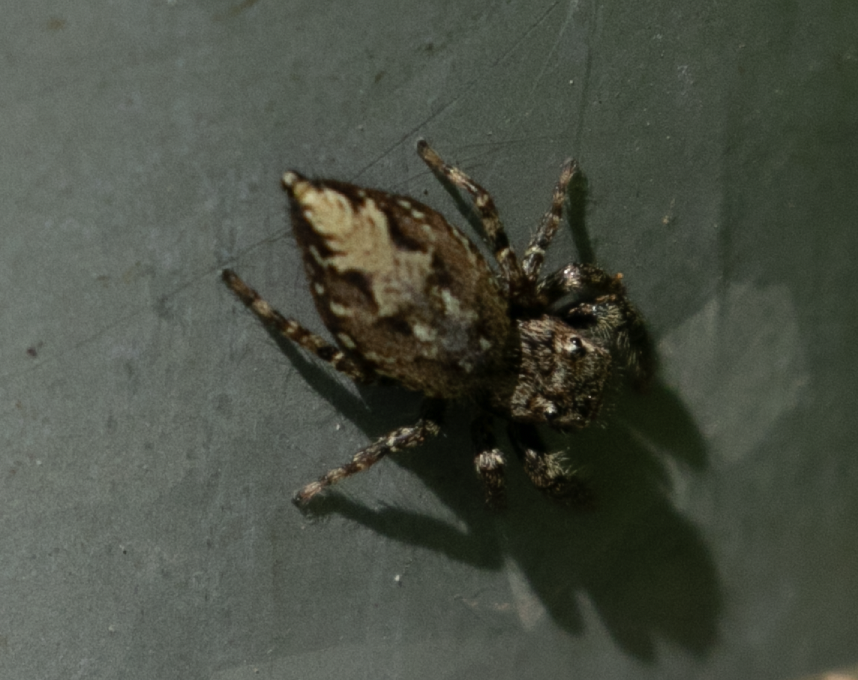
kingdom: Animalia
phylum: Arthropoda
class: Arachnida
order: Araneae
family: Salticidae
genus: Marpissa
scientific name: Marpissa muscosa
